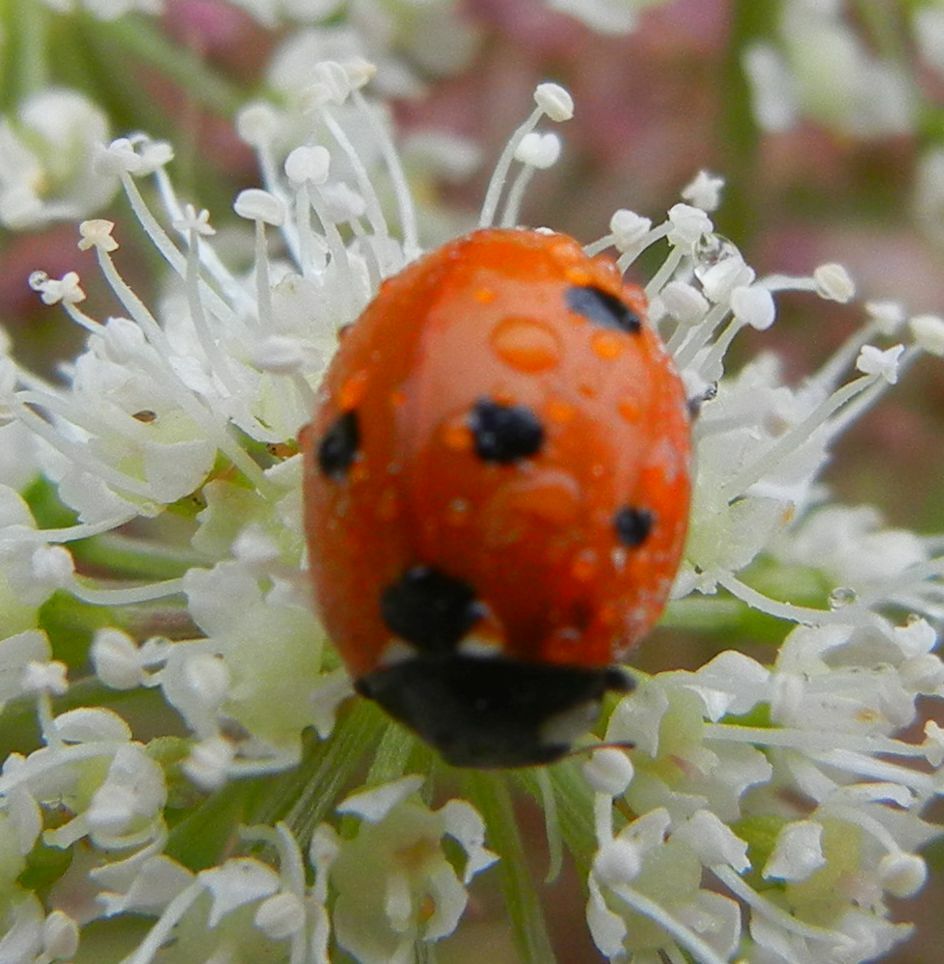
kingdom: Animalia
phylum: Arthropoda
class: Insecta
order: Coleoptera
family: Coccinellidae
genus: Coccinella
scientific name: Coccinella septempunctata
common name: Sevenspotted lady beetle
